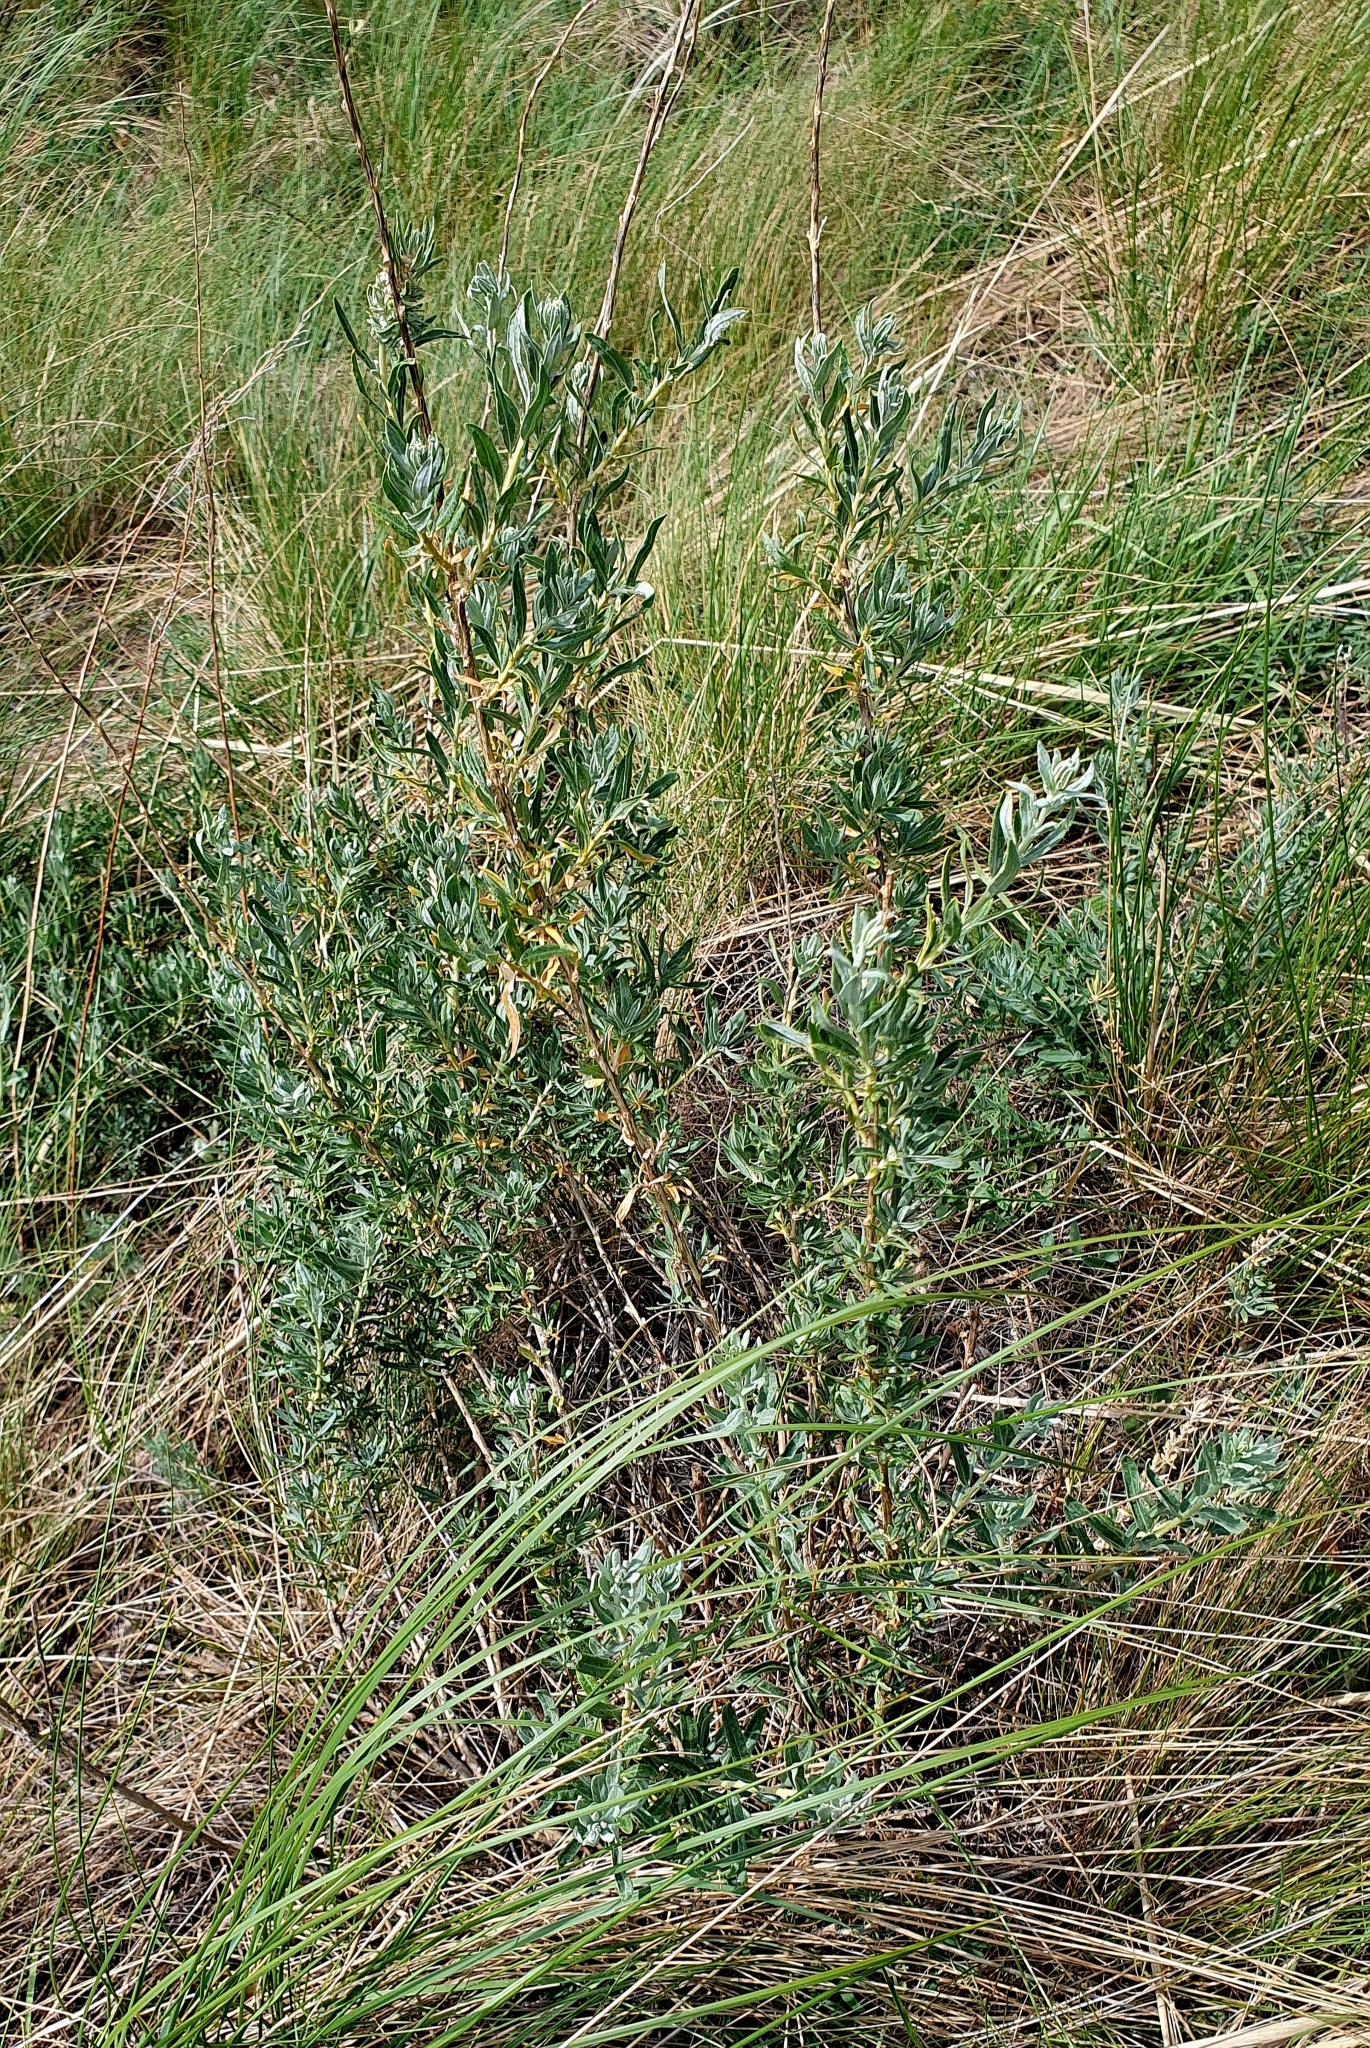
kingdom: Plantae
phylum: Tracheophyta
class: Magnoliopsida
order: Caryophyllales
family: Amaranthaceae
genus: Krascheninnikovia
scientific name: Krascheninnikovia ceratoides
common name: Pamirian winterfat
